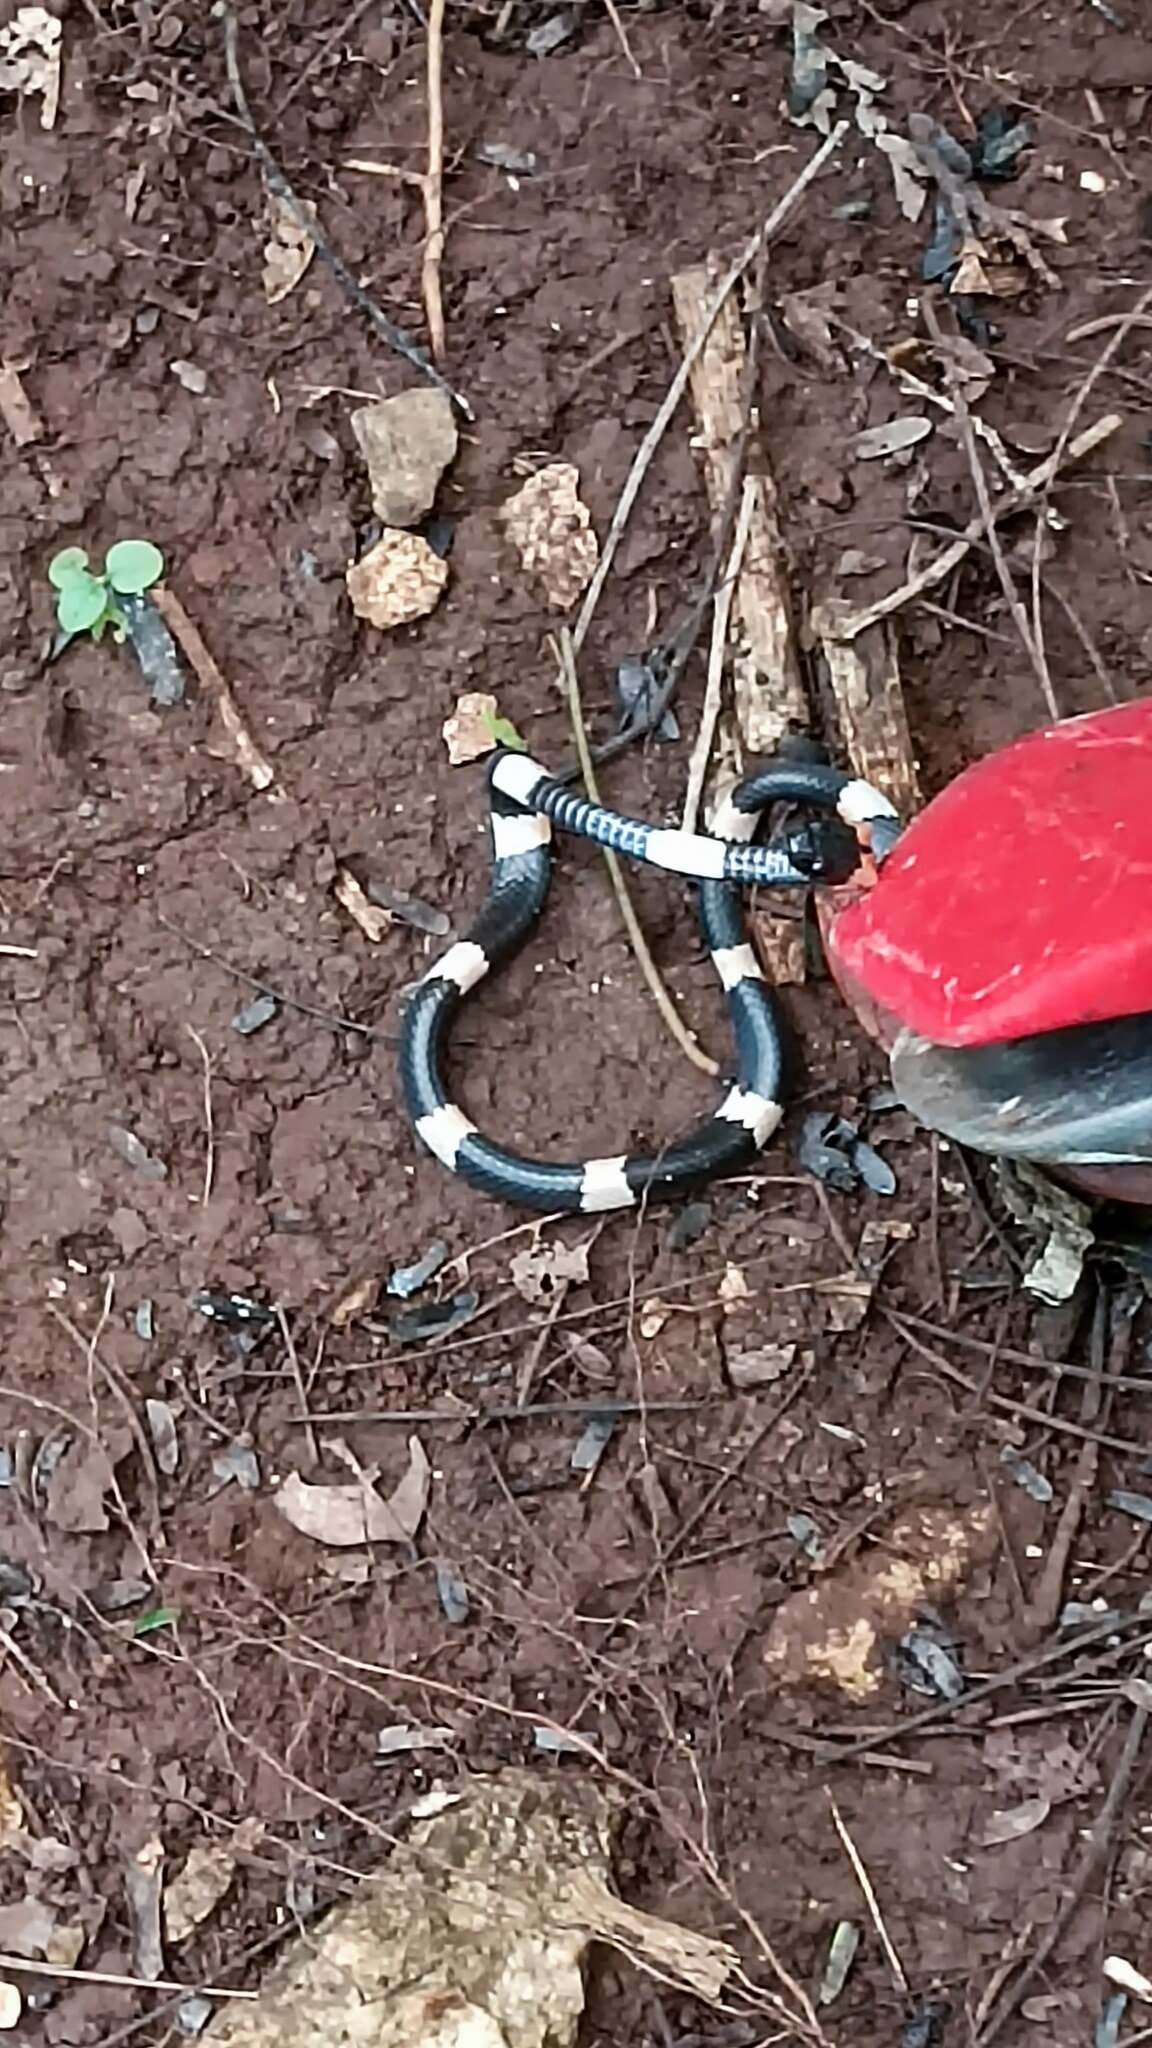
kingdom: Animalia
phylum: Chordata
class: Squamata
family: Colubridae
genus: Dipsas
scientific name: Dipsas brevifacies
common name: Snail-eating thirst snake
